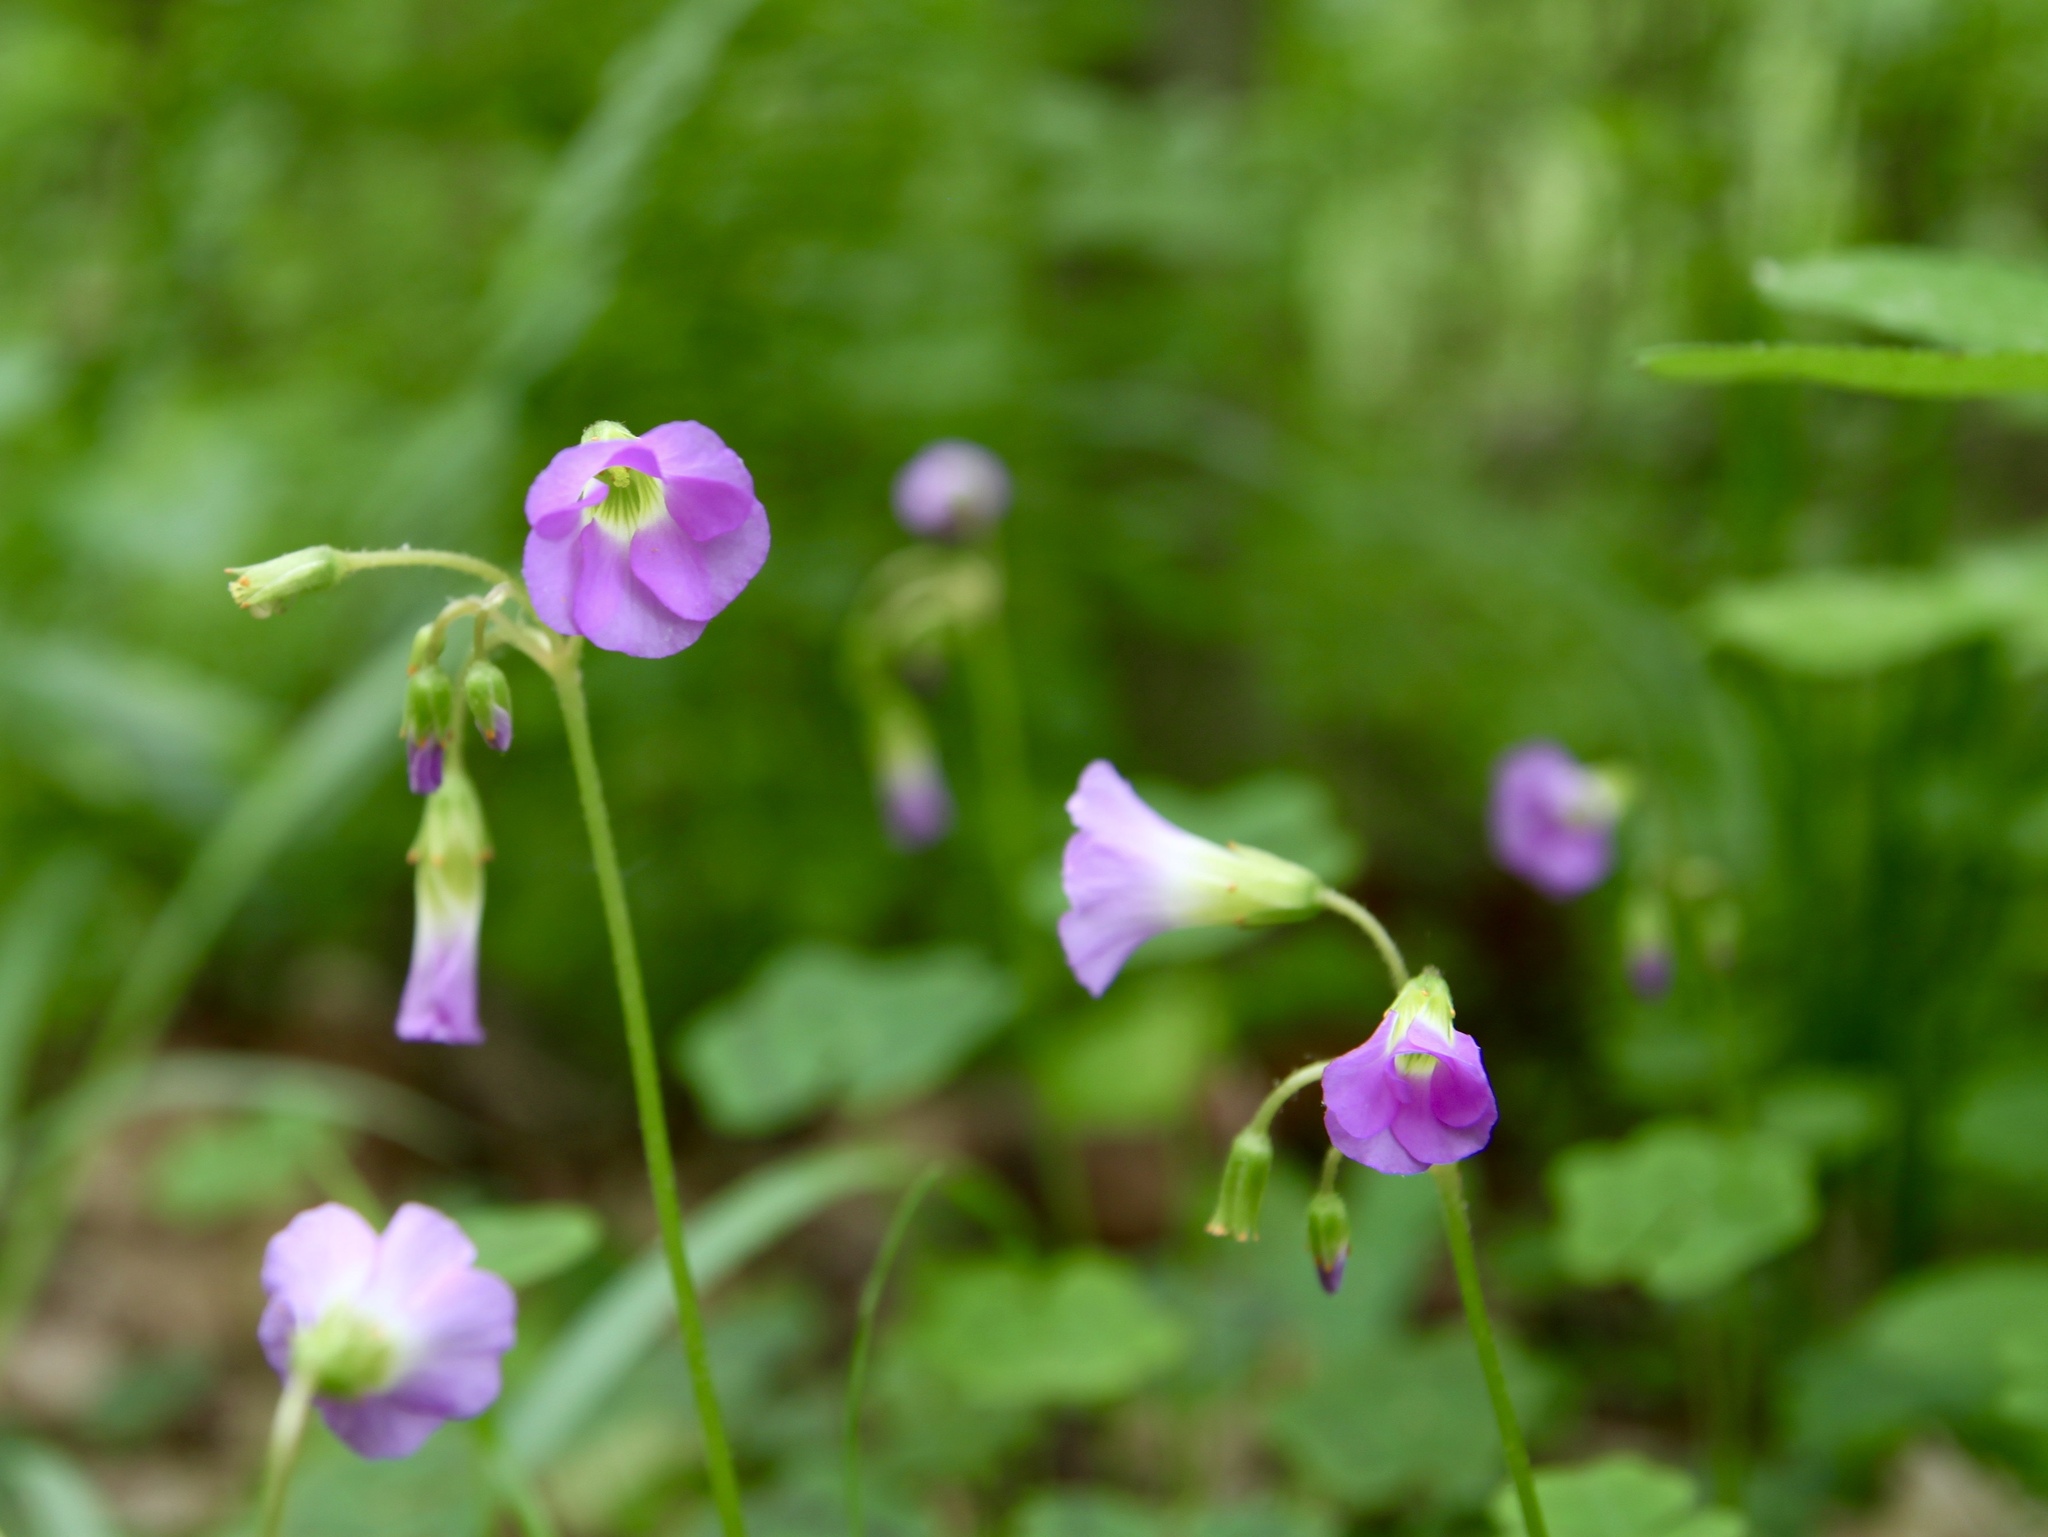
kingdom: Plantae
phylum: Tracheophyta
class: Magnoliopsida
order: Oxalidales
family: Oxalidaceae
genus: Oxalis
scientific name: Oxalis violacea
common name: Violet wood-sorrel
